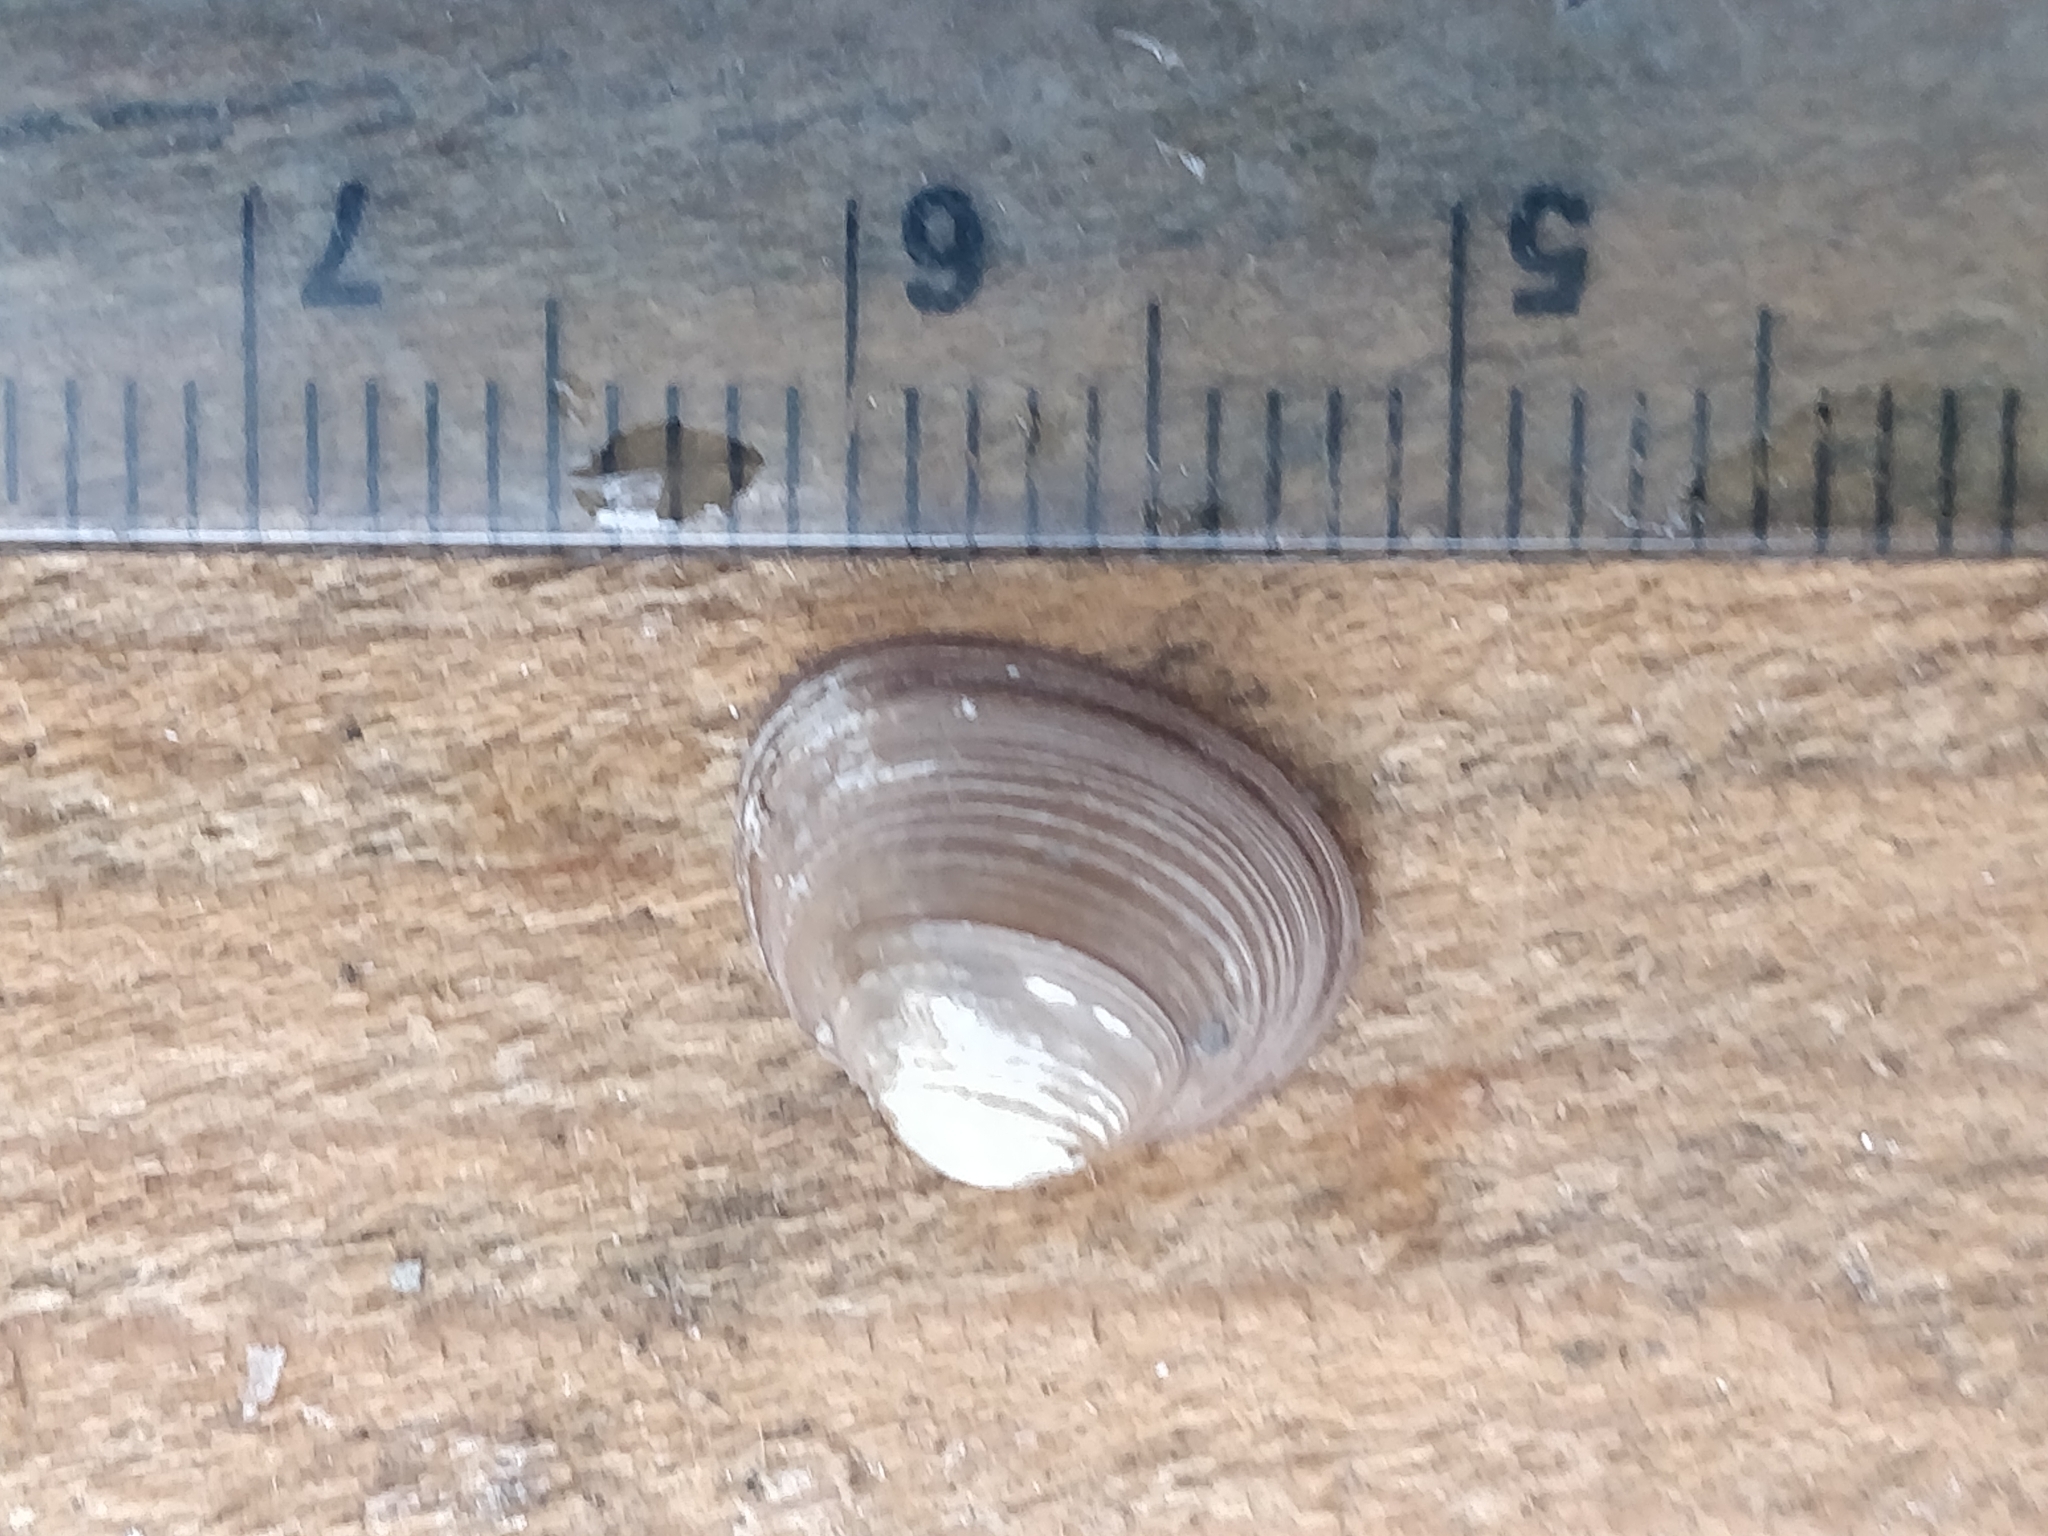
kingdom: Animalia
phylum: Mollusca
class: Bivalvia
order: Sphaeriida
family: Sphaeriidae
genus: Sphaerium
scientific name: Sphaerium striatinum
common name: Striated fingernailclam
